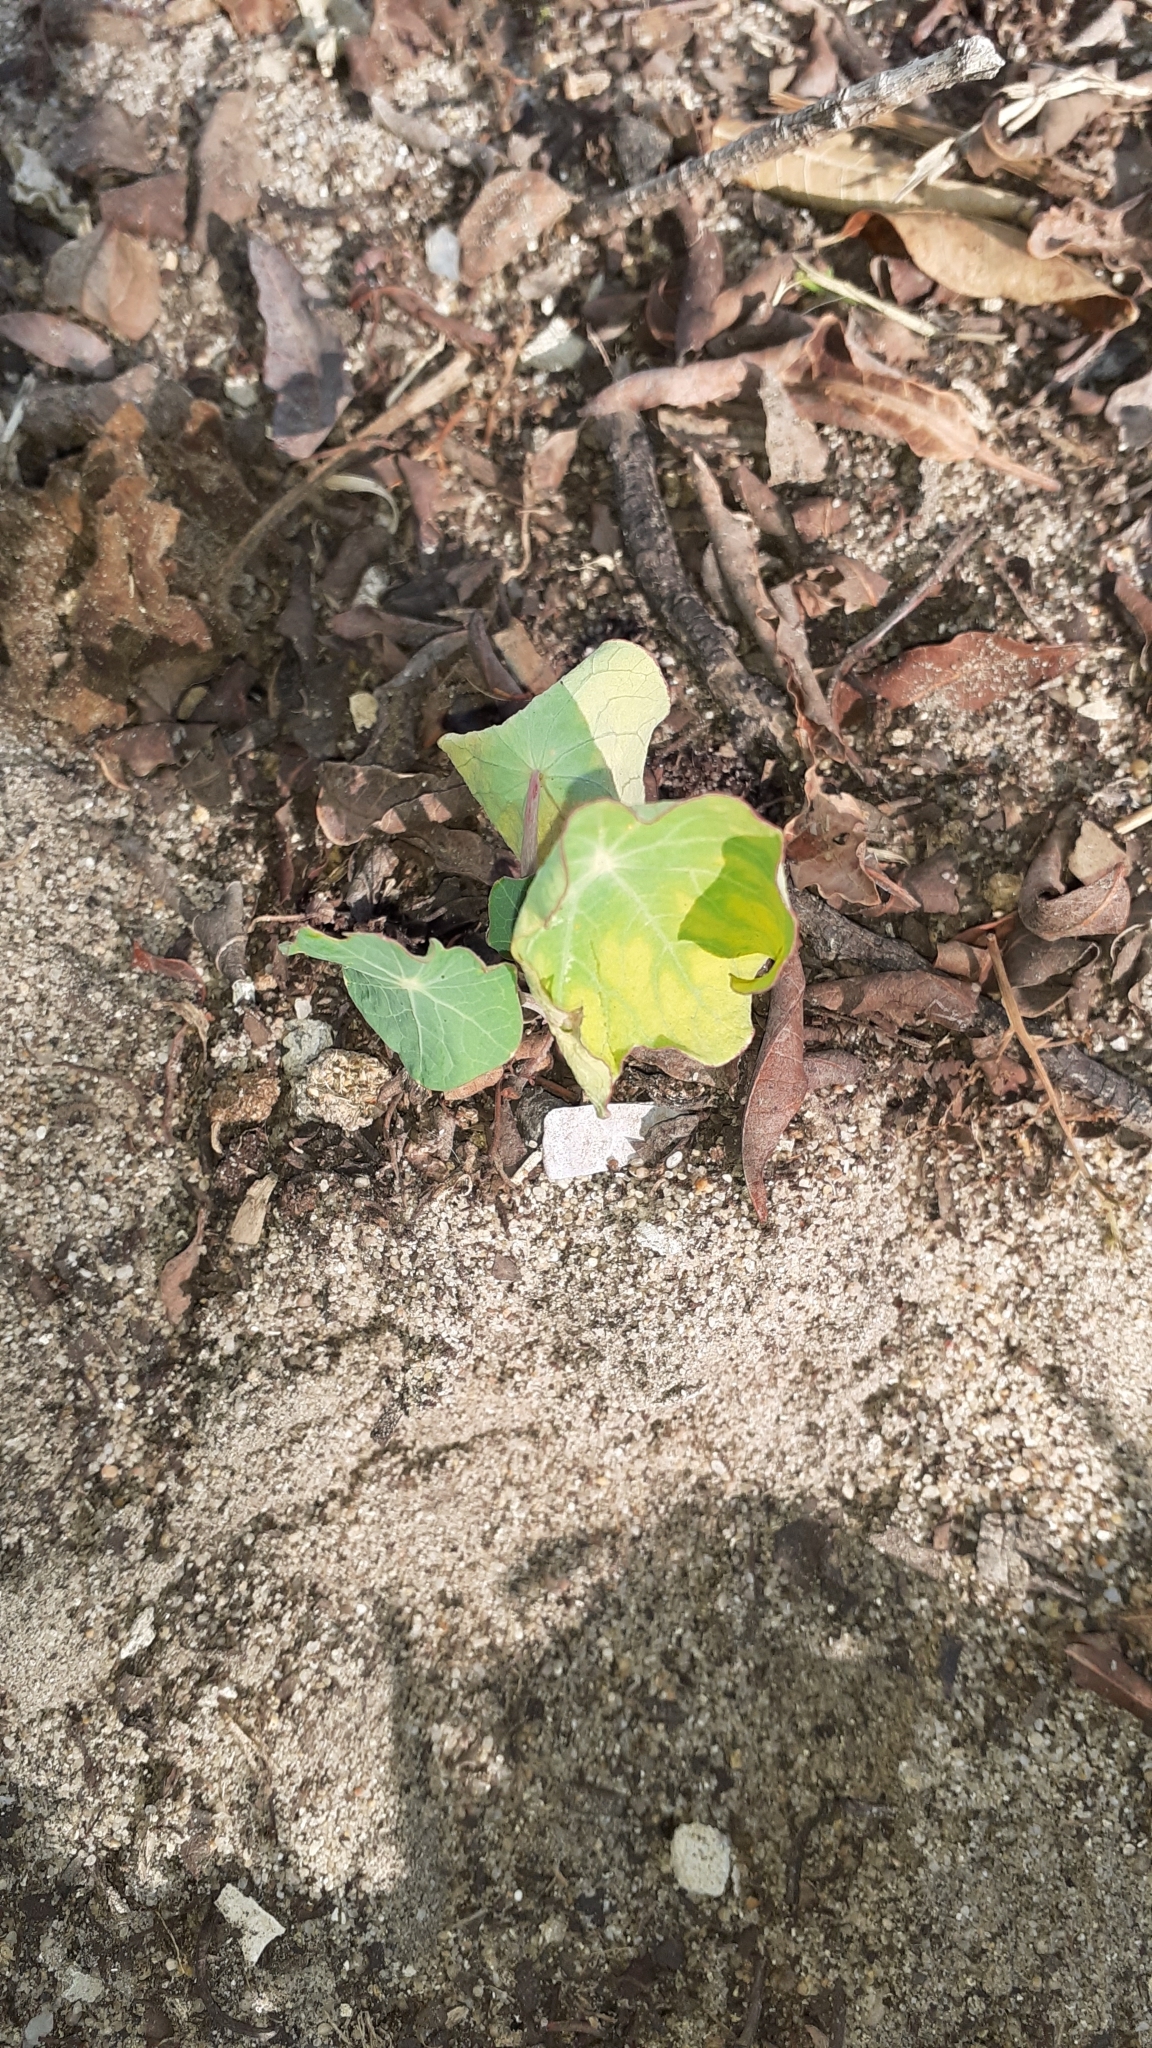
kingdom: Plantae
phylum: Tracheophyta
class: Magnoliopsida
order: Brassicales
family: Tropaeolaceae
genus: Tropaeolum
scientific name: Tropaeolum majus
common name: Nasturtium
